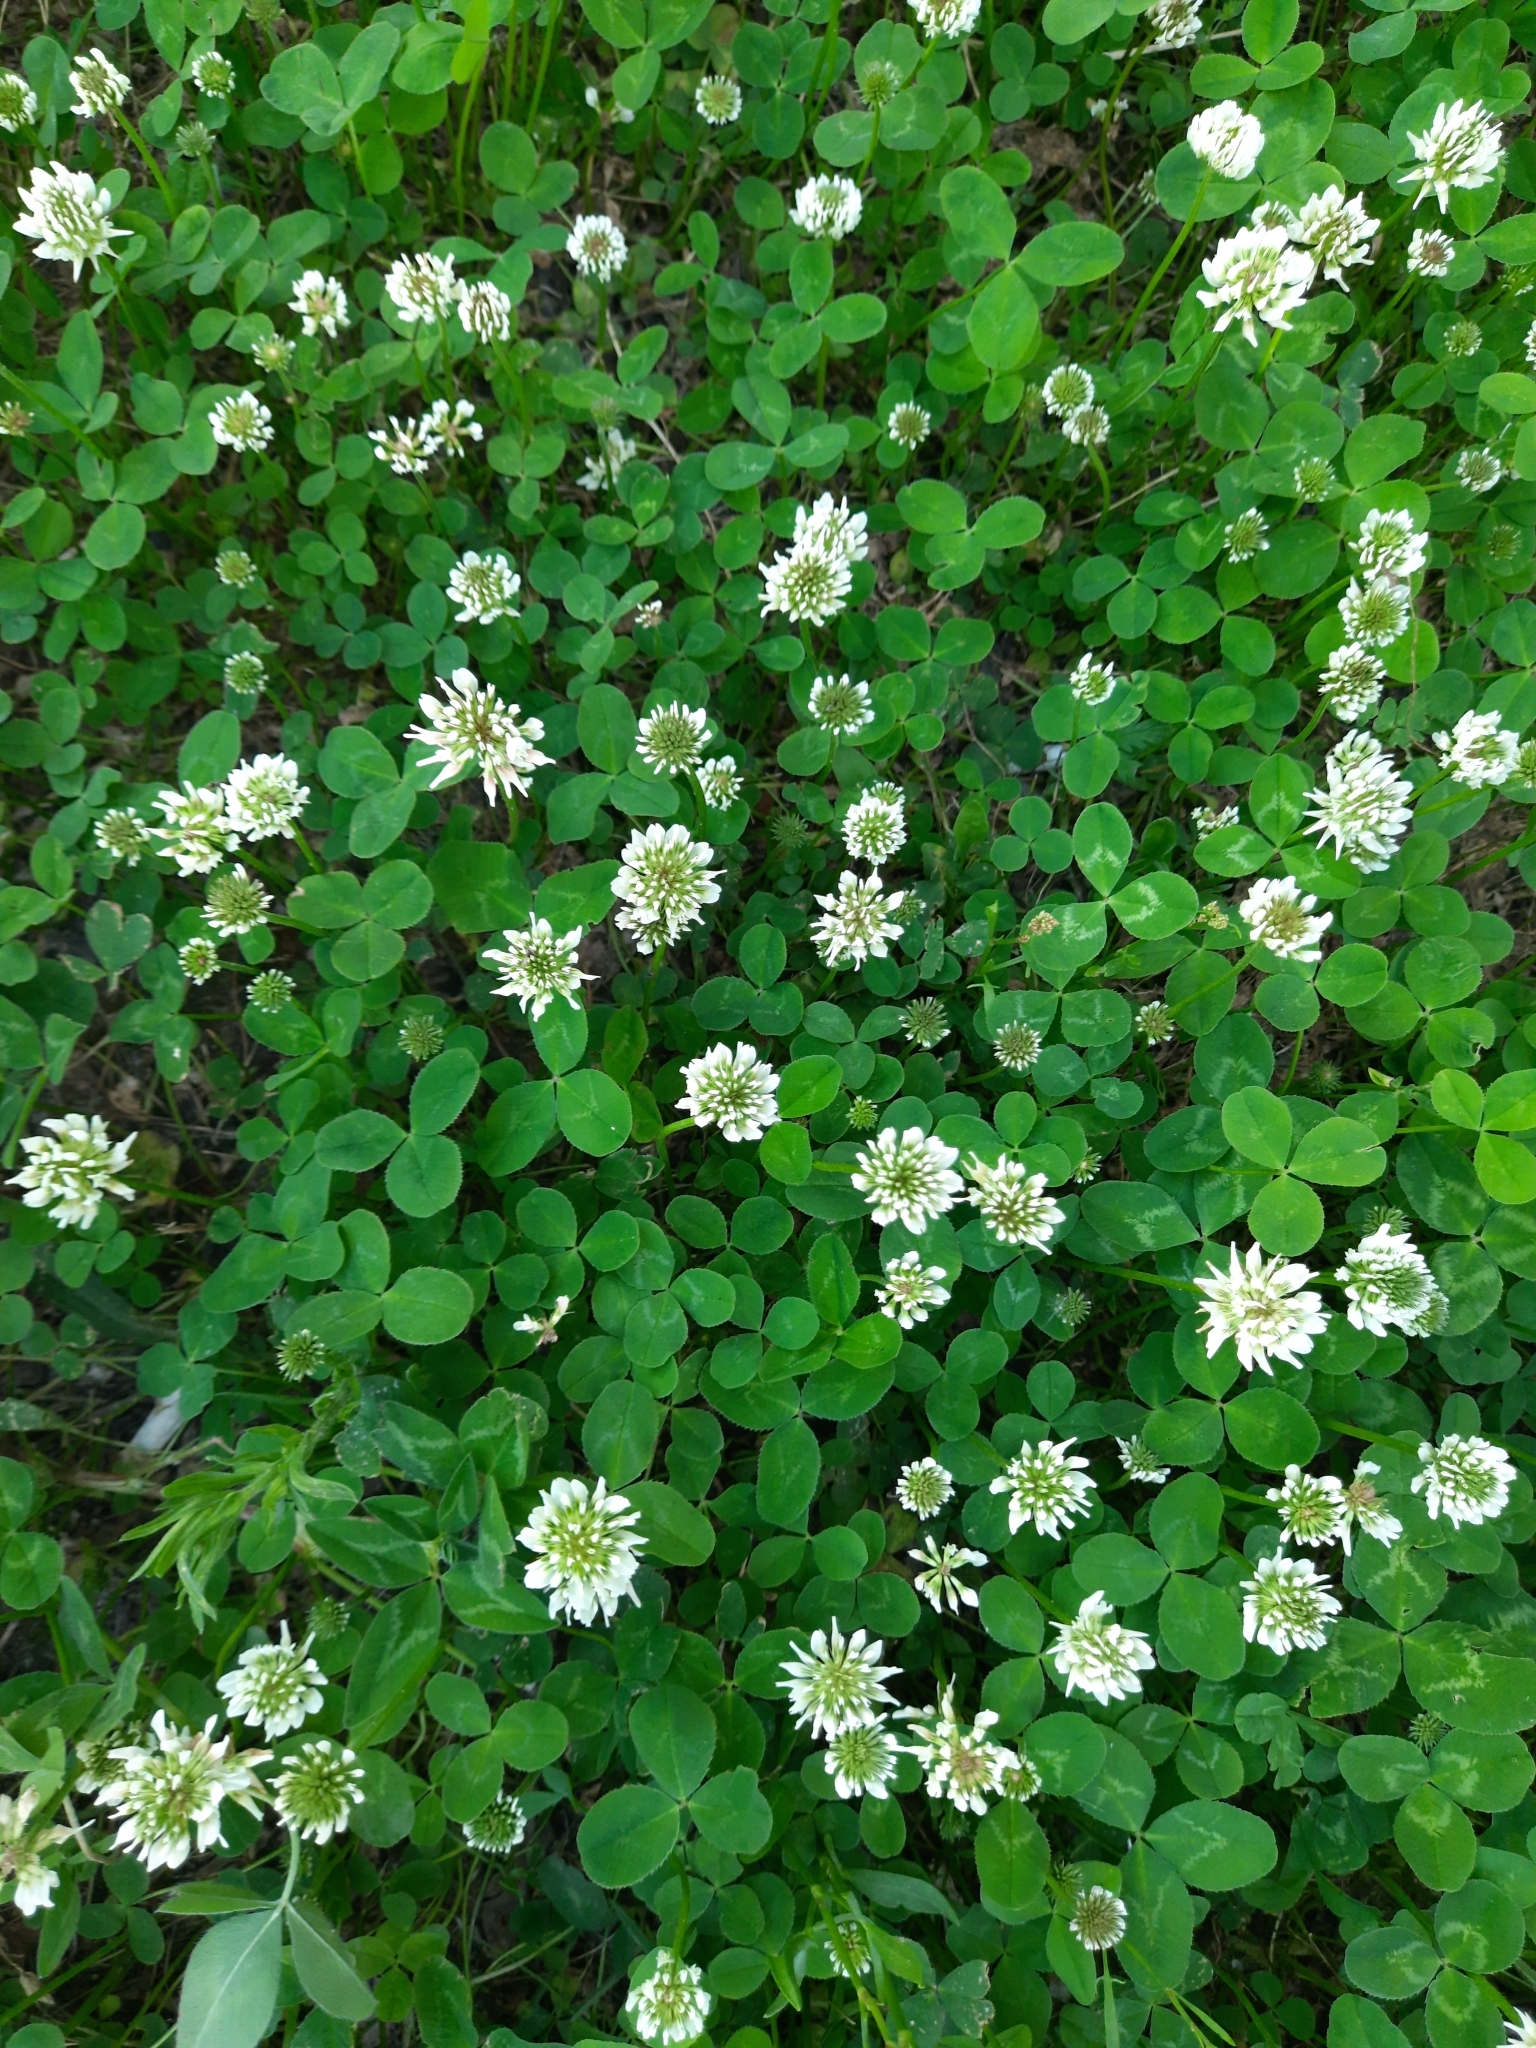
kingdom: Plantae
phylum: Tracheophyta
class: Magnoliopsida
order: Fabales
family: Fabaceae
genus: Trifolium
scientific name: Trifolium repens
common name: White clover
